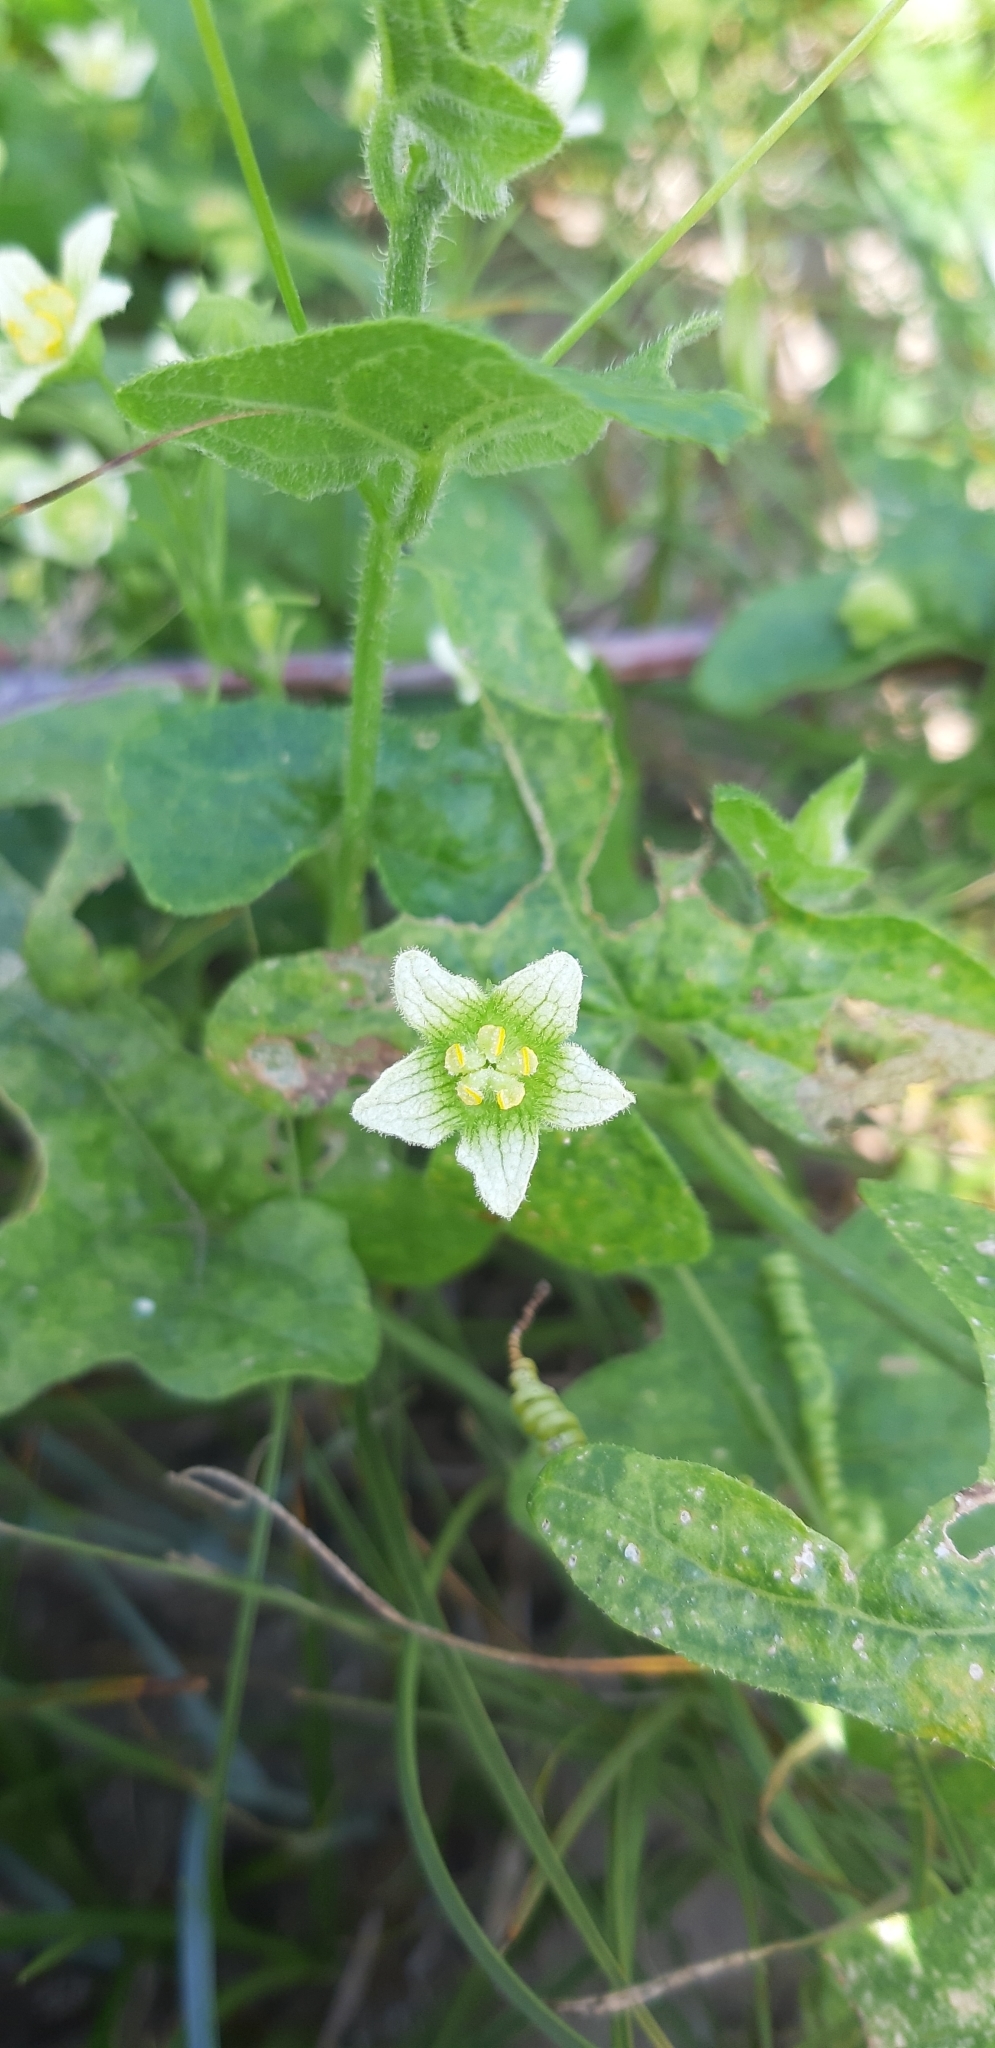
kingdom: Plantae
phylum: Tracheophyta
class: Magnoliopsida
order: Cucurbitales
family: Cucurbitaceae
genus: Bryonia
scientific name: Bryonia cretica
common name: Cretan bryony
